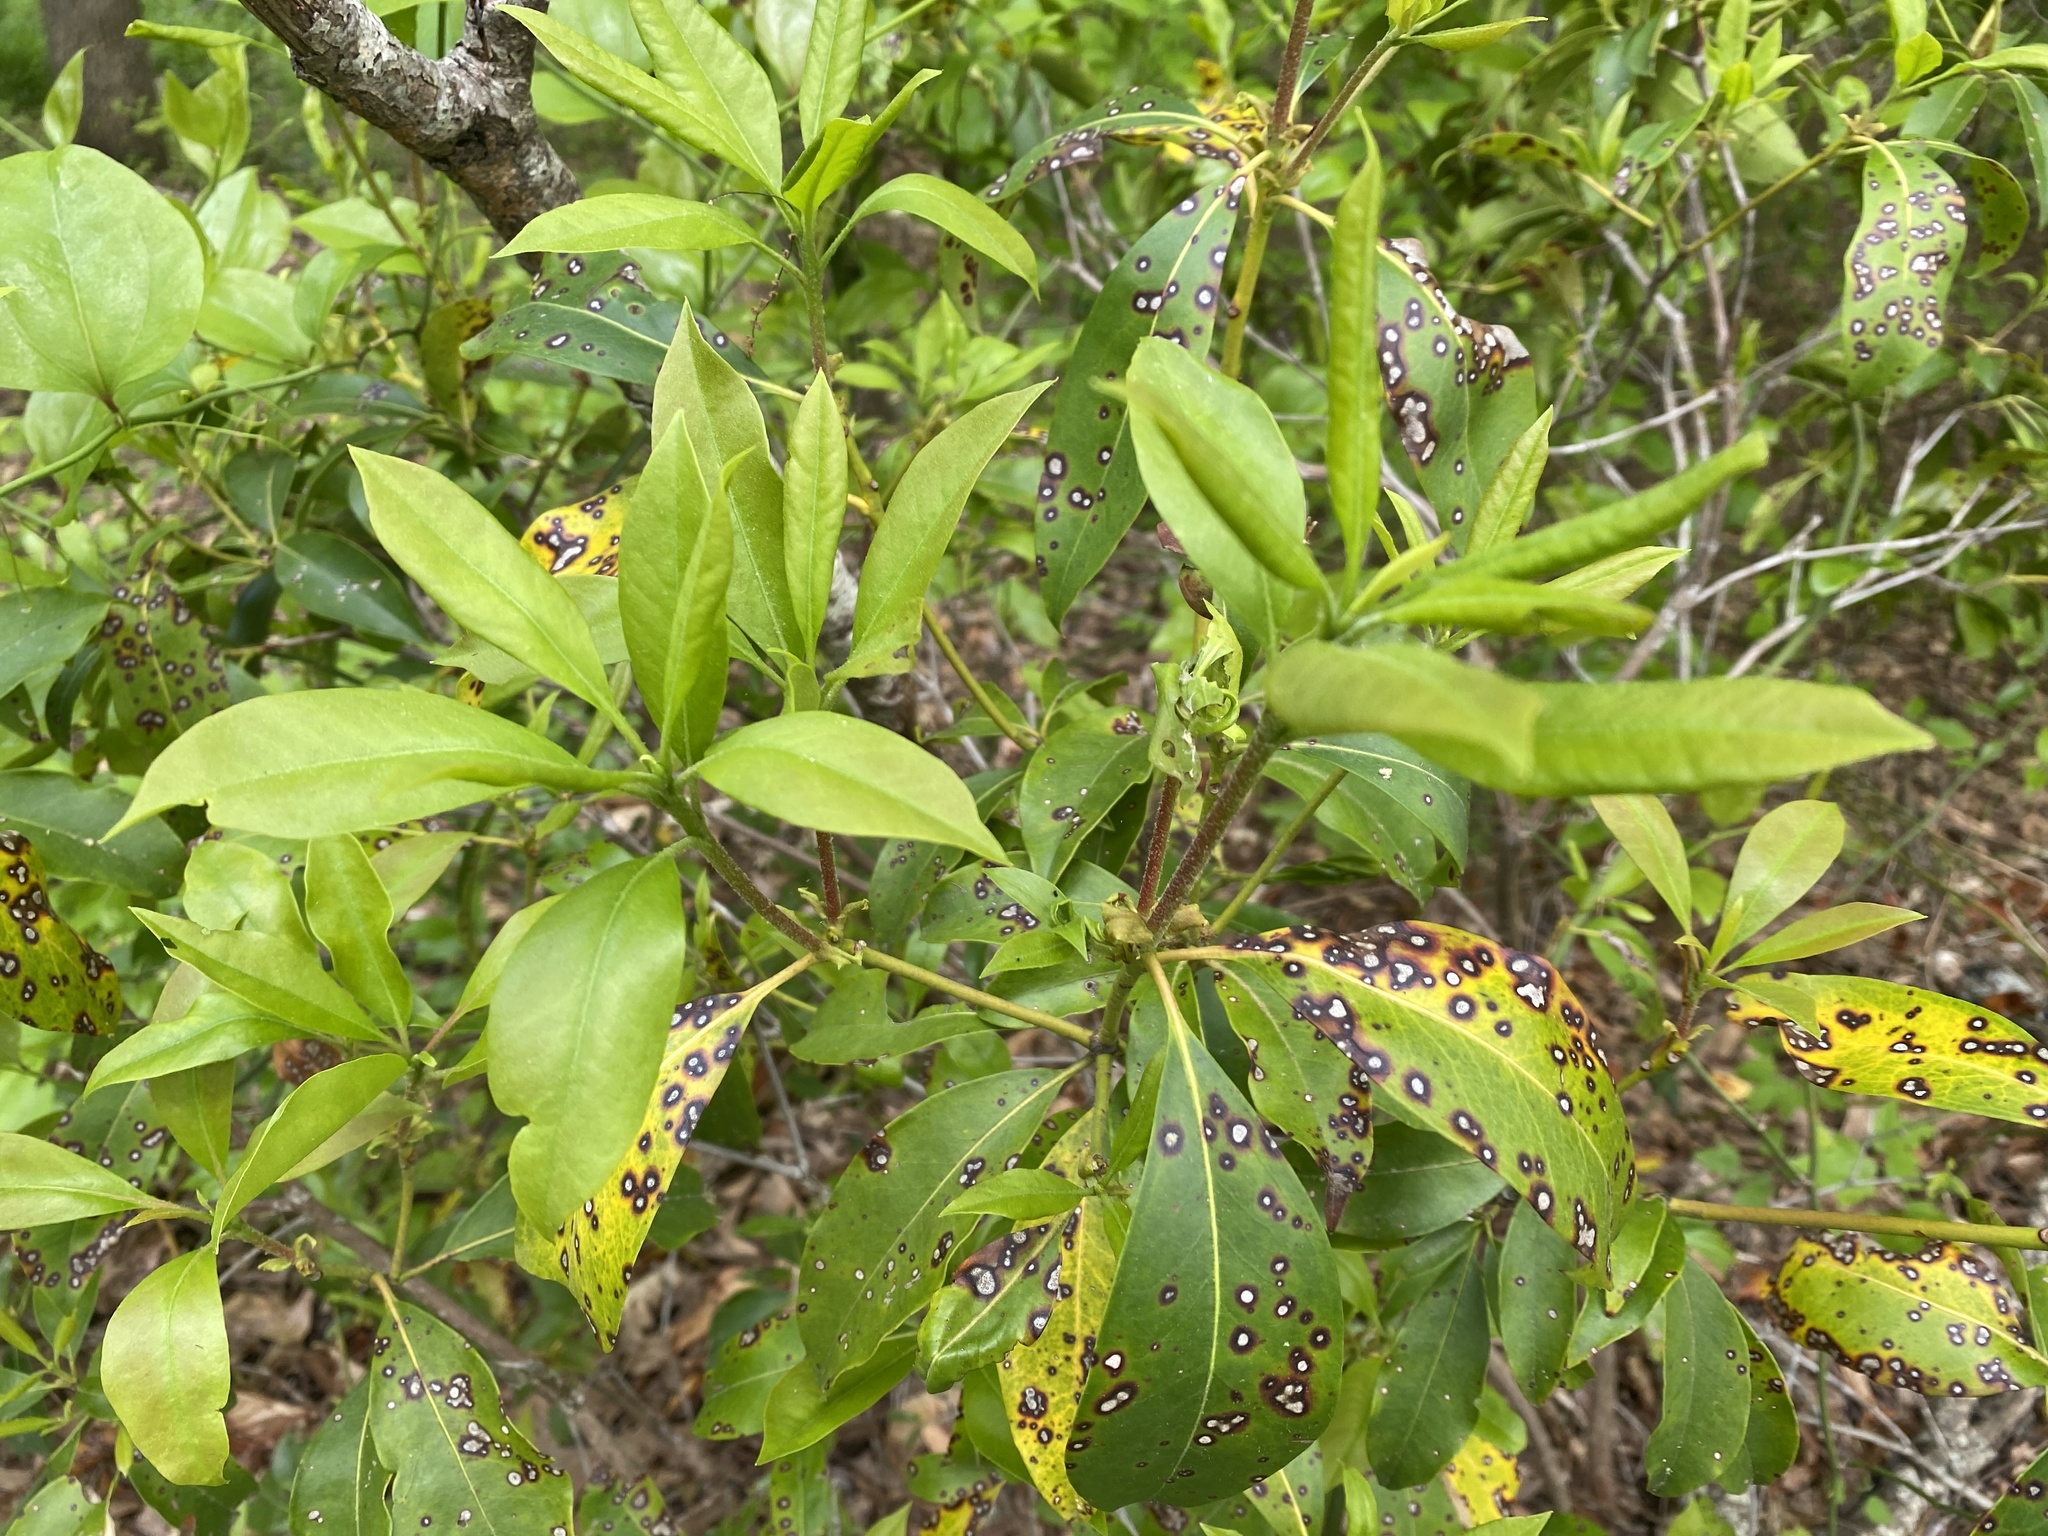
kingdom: Plantae
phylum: Tracheophyta
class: Magnoliopsida
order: Ericales
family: Ericaceae
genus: Kalmia
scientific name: Kalmia latifolia
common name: Mountain-laurel
